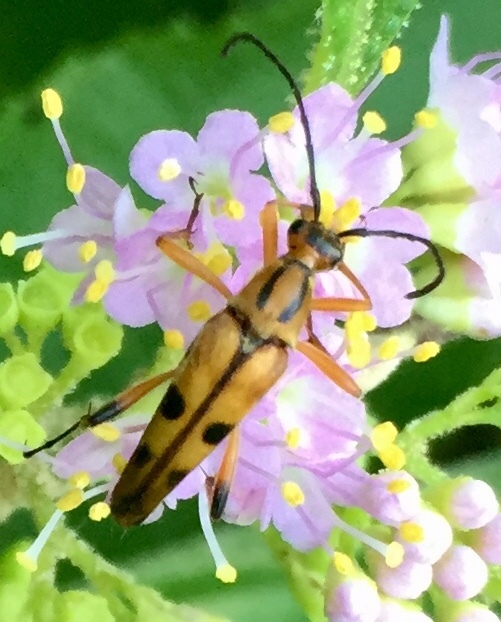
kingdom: Animalia
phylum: Arthropoda
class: Insecta
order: Coleoptera
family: Cerambycidae
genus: Strangalia
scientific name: Strangalia famelica
